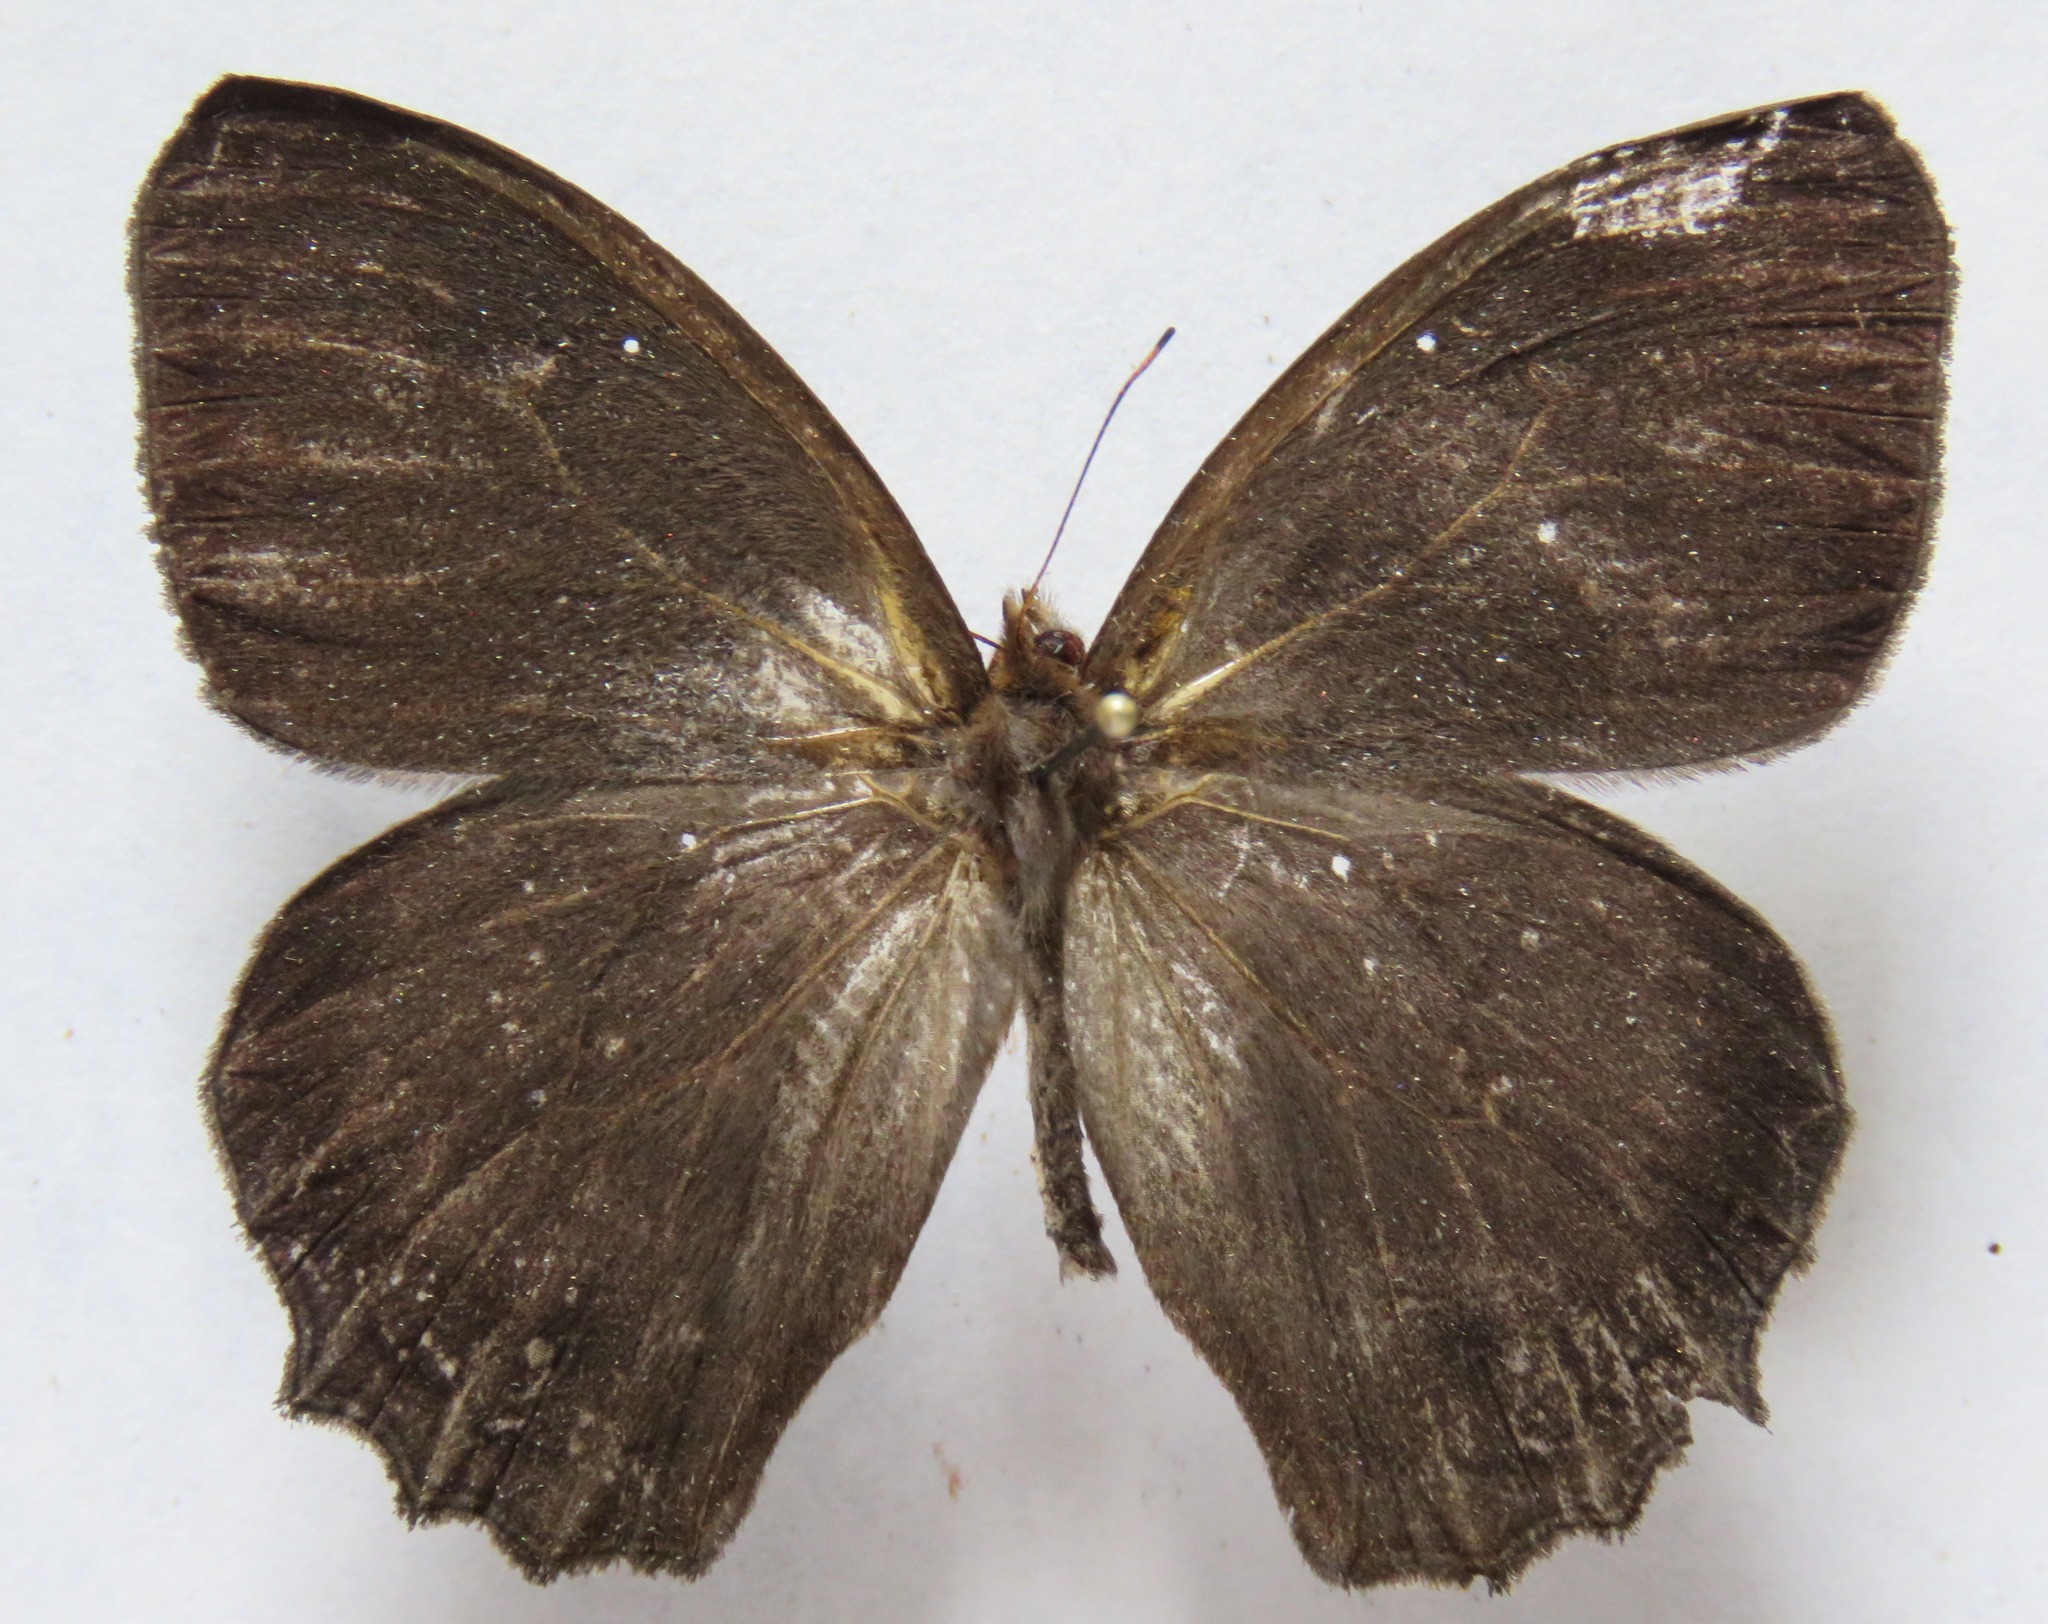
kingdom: Animalia
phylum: Arthropoda
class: Insecta
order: Lepidoptera
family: Nymphalidae
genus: Pseudodebis
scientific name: Pseudodebis valentina
